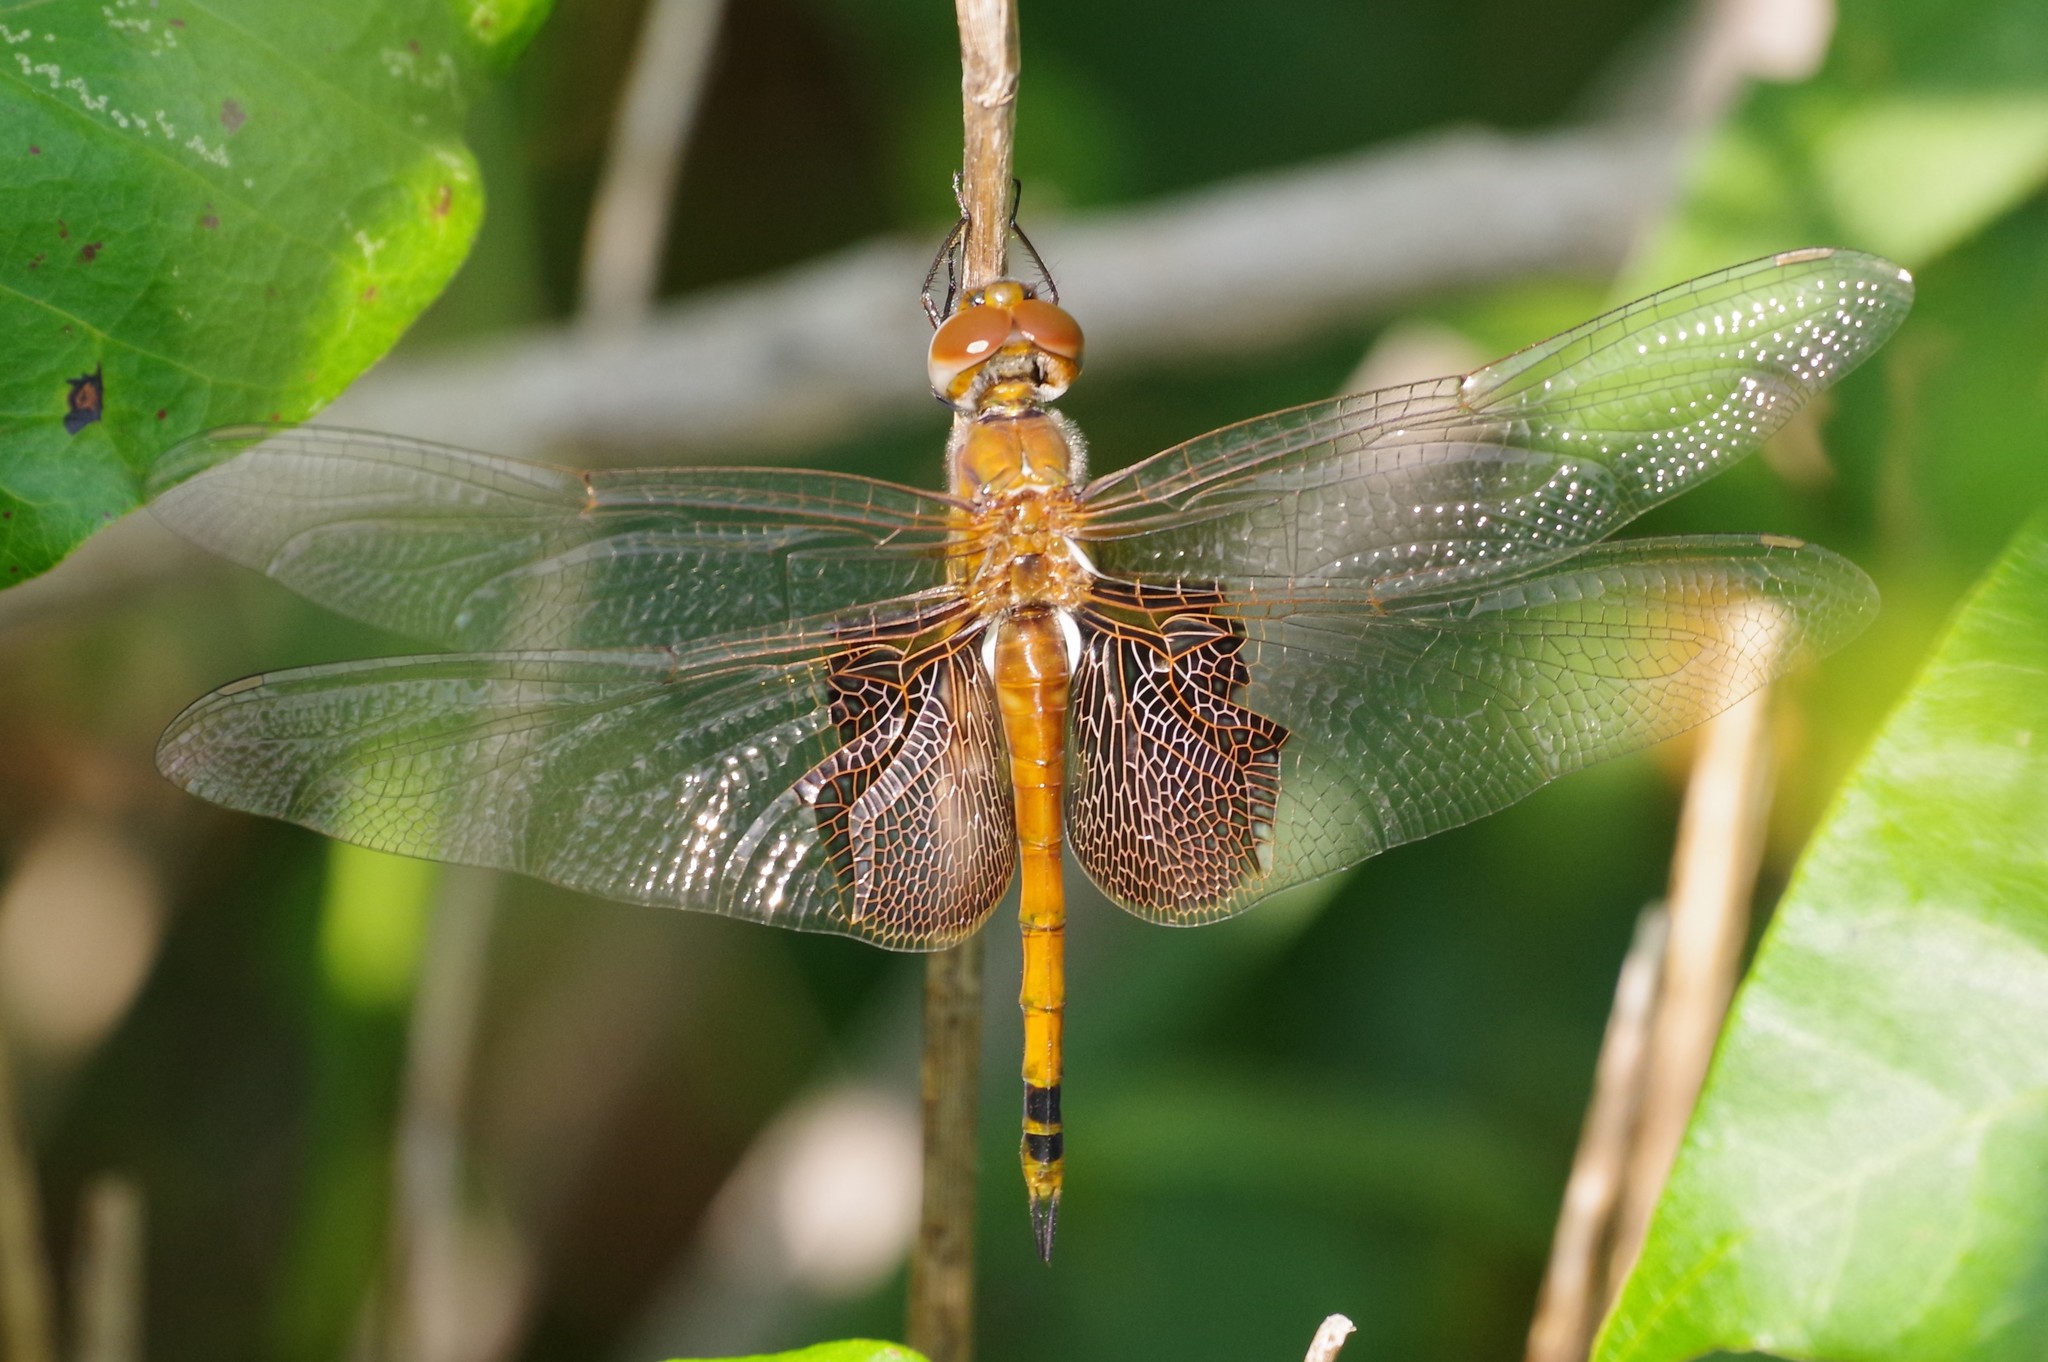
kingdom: Animalia
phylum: Arthropoda
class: Insecta
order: Odonata
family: Libellulidae
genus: Tramea
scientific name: Tramea carolina
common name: Carolina saddlebags
